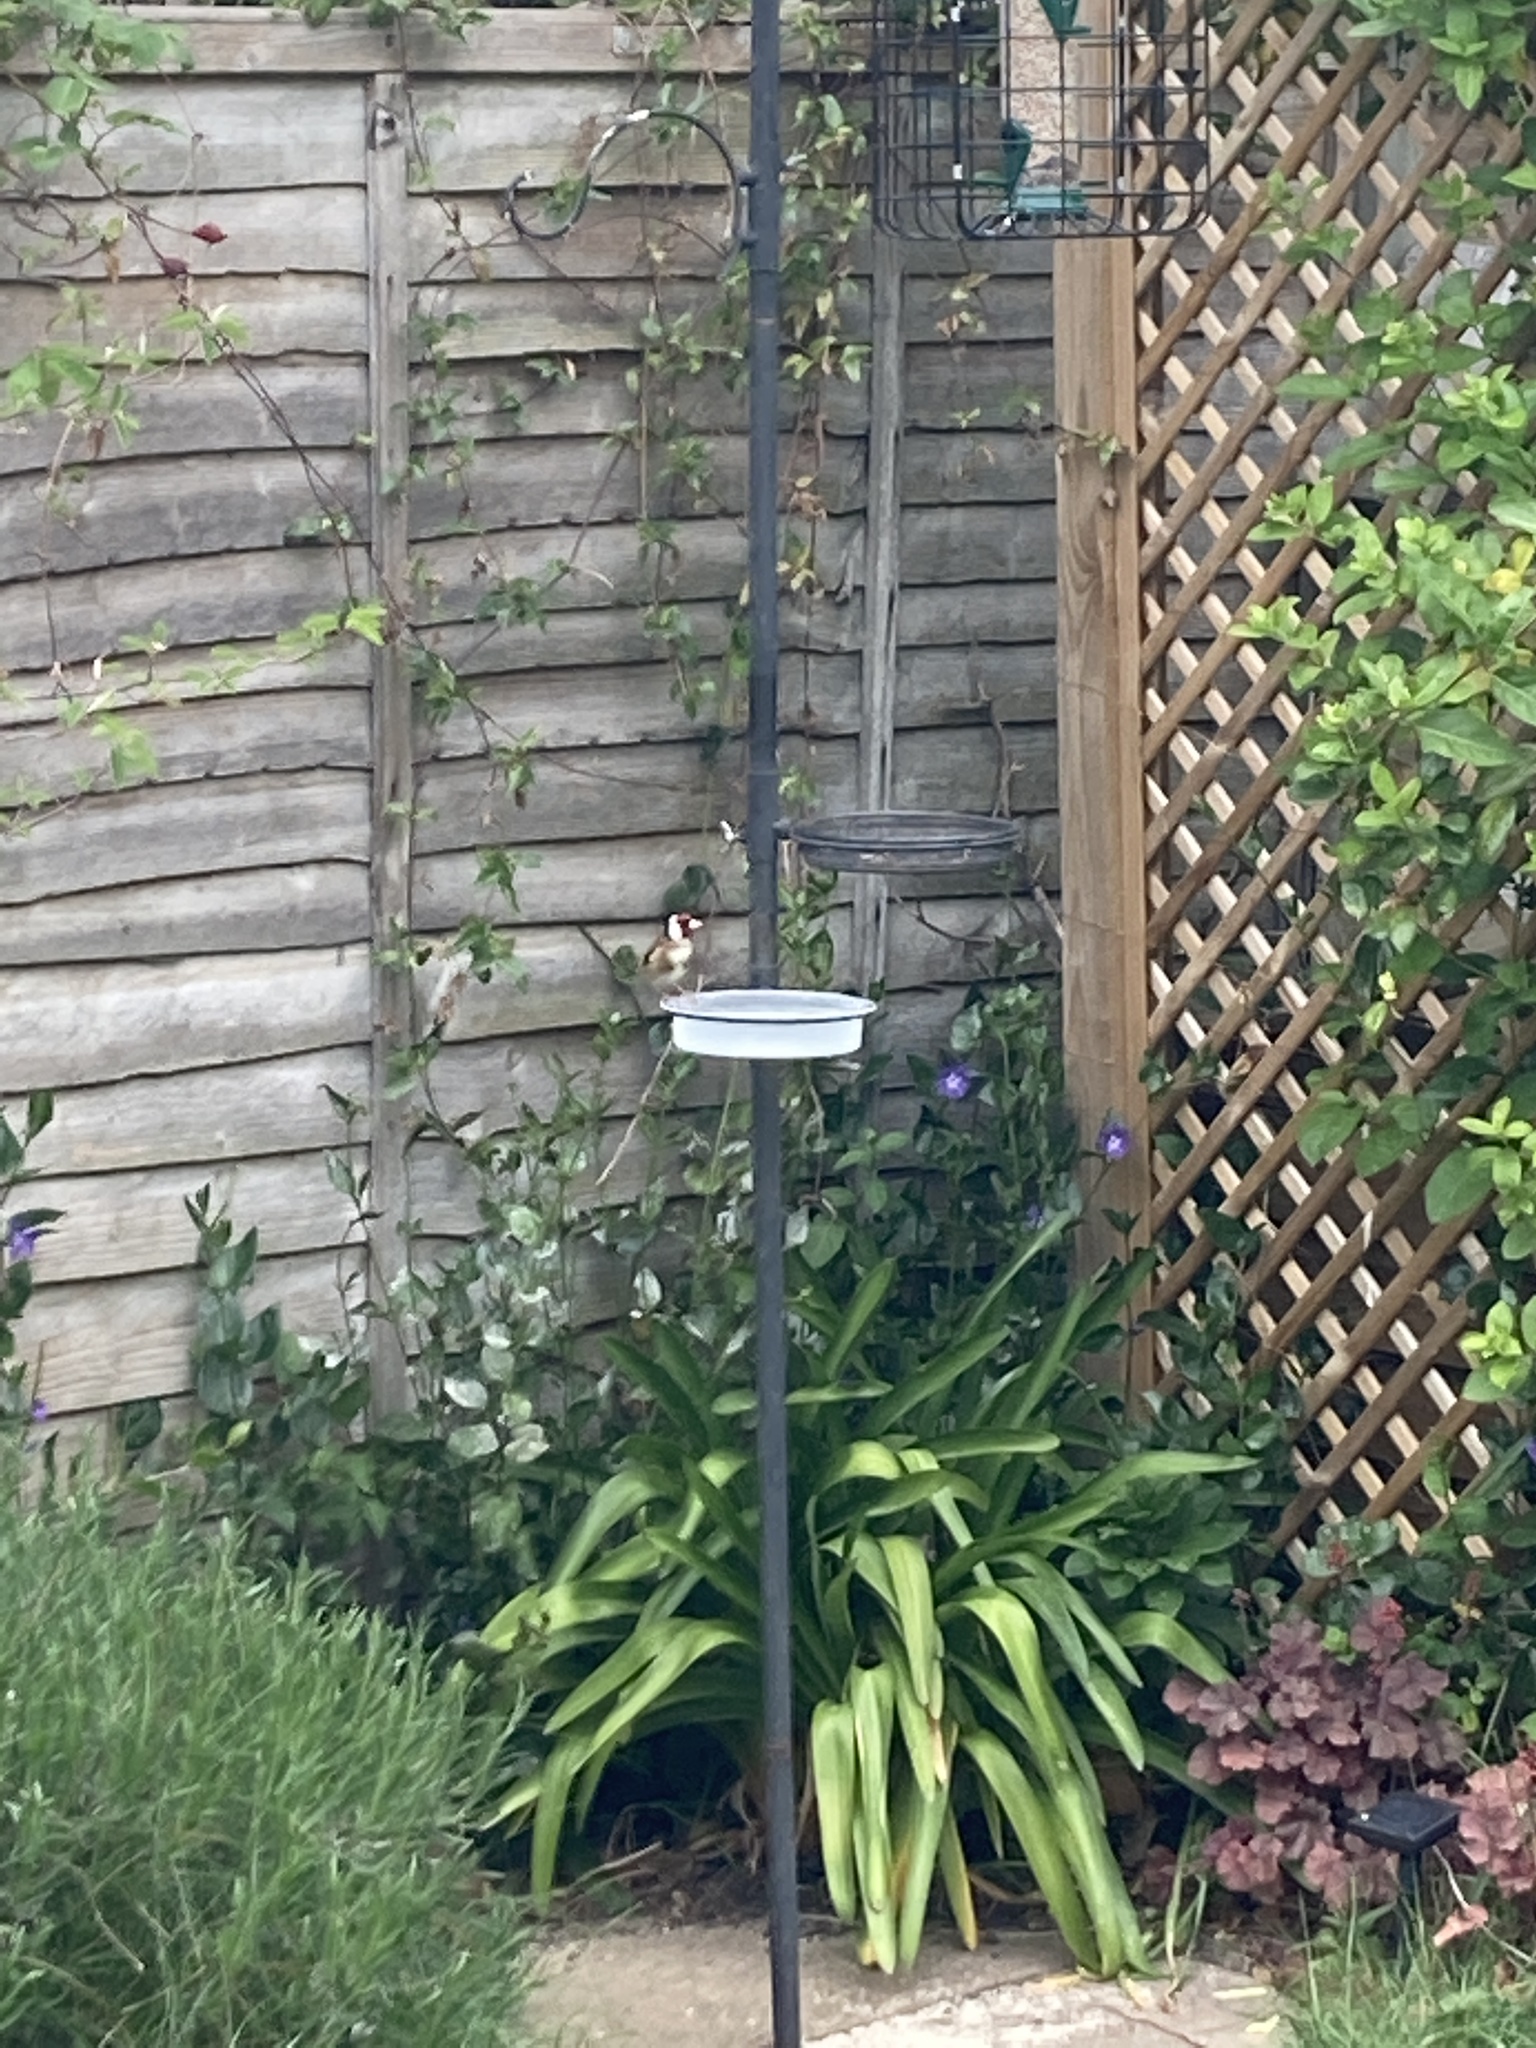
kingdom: Animalia
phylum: Chordata
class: Aves
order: Passeriformes
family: Fringillidae
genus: Carduelis
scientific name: Carduelis carduelis
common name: European goldfinch
